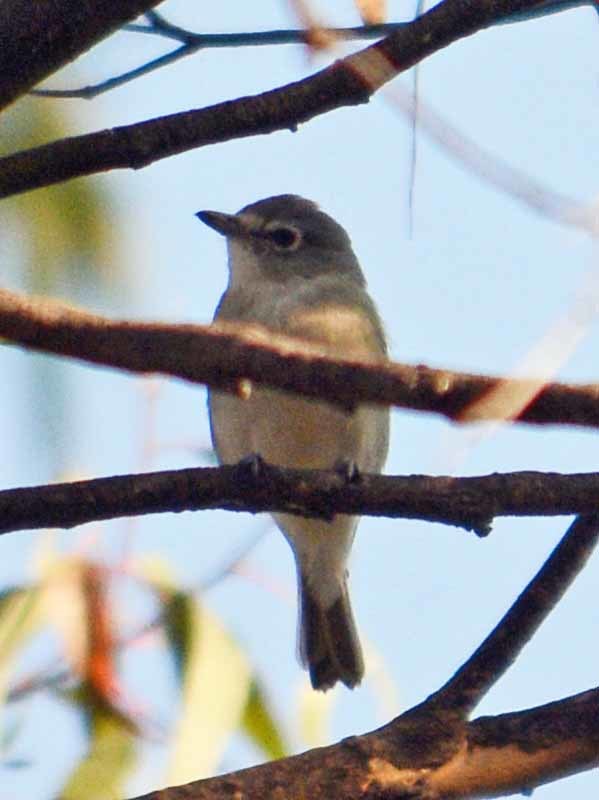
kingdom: Animalia
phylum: Chordata
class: Aves
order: Passeriformes
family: Vireonidae
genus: Vireo
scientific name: Vireo cassinii
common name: Cassin's vireo
